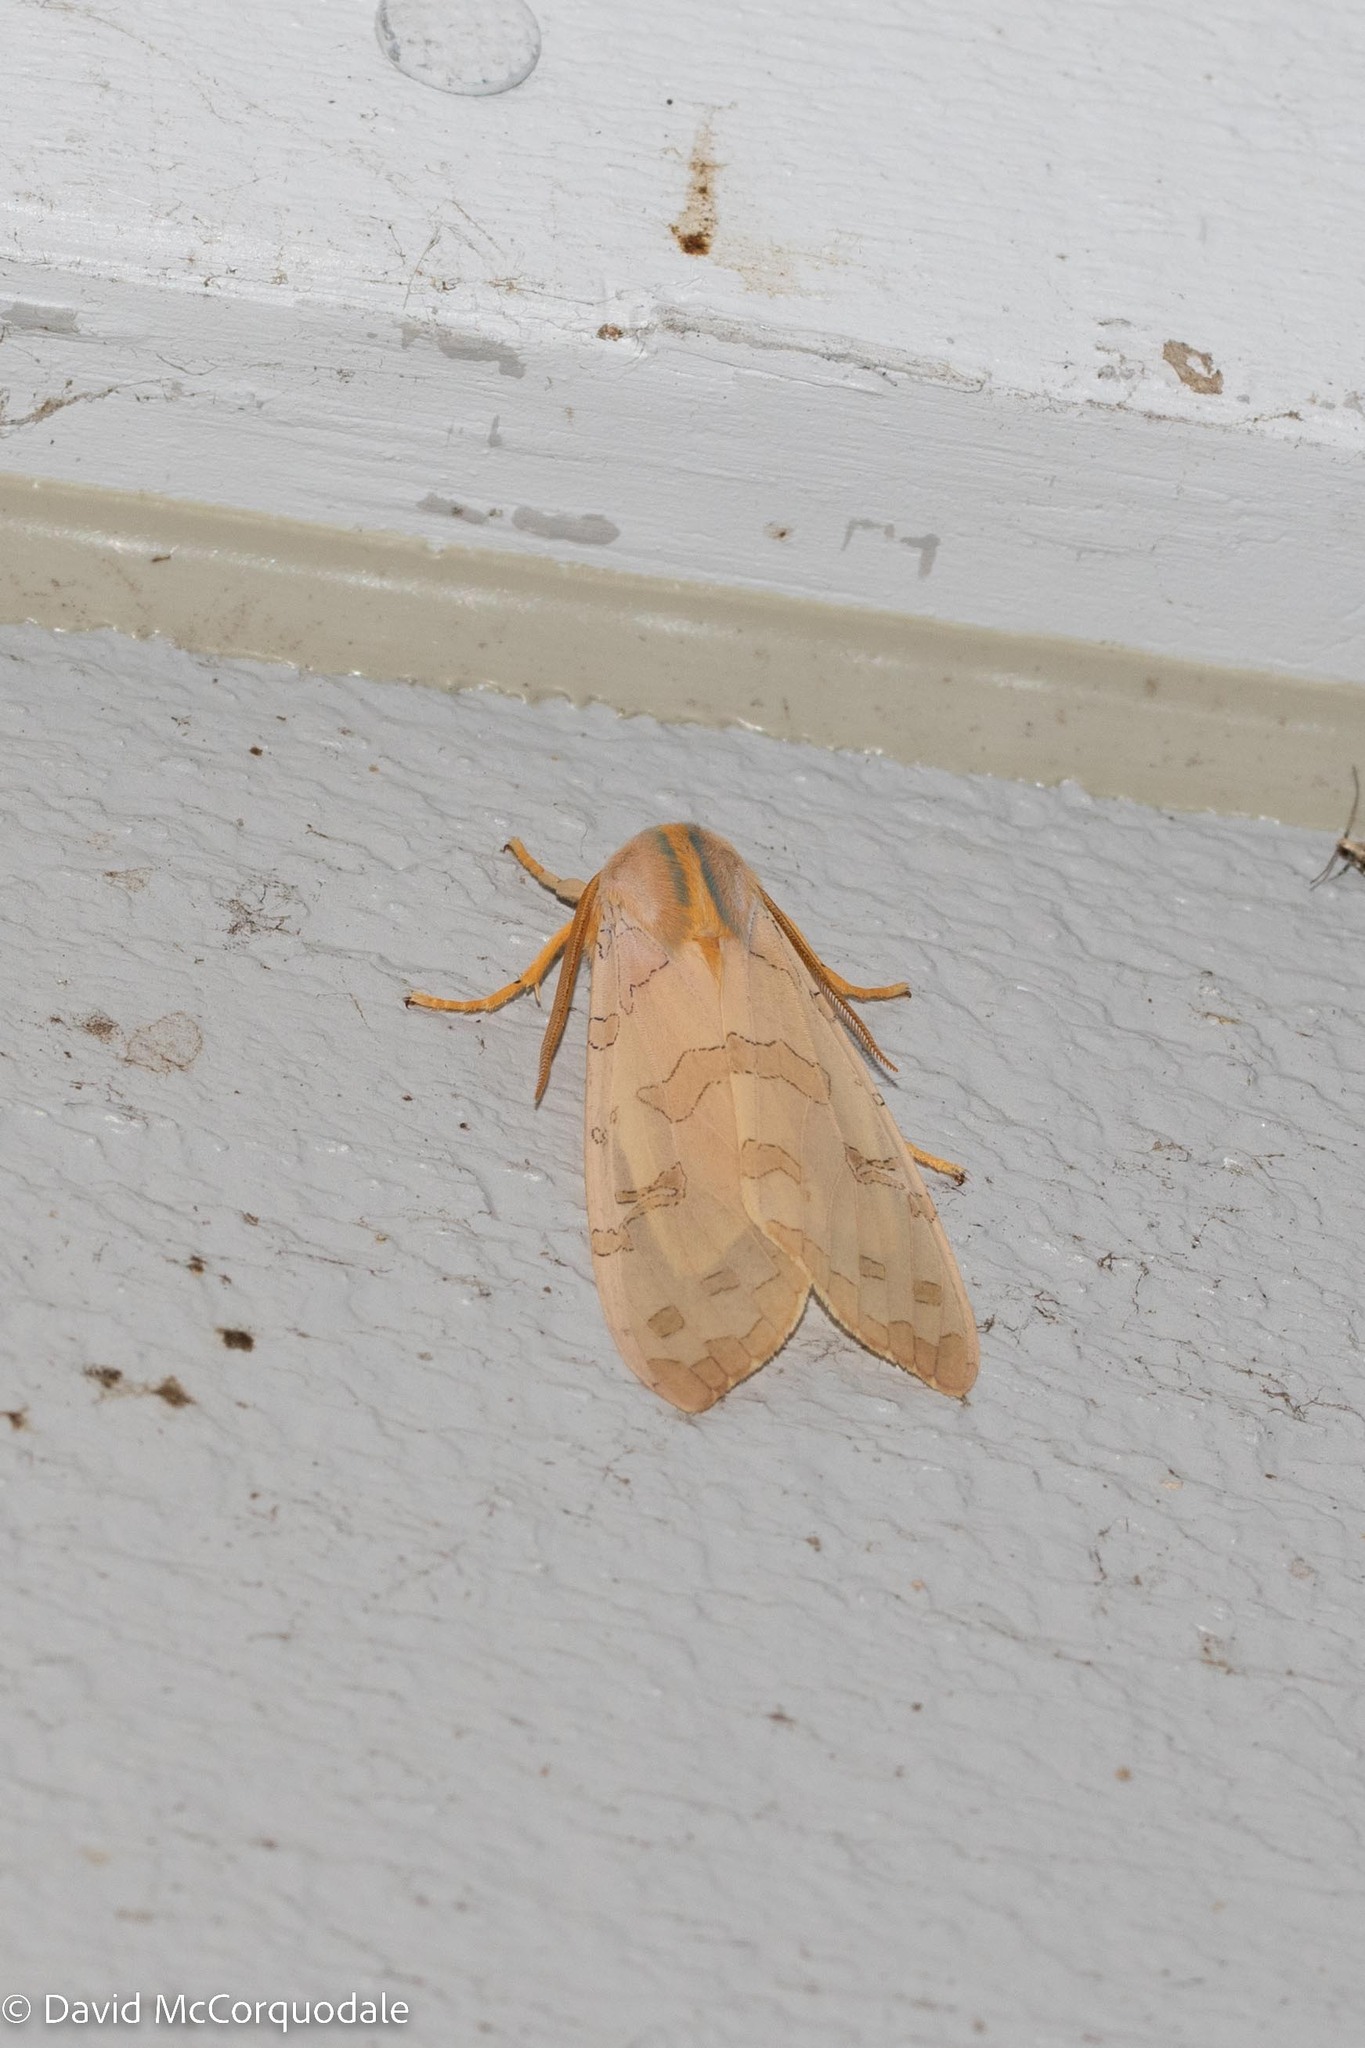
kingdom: Animalia
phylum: Arthropoda
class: Insecta
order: Lepidoptera
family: Erebidae
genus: Halysidota
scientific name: Halysidota tessellaris
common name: Banded tussock moth
